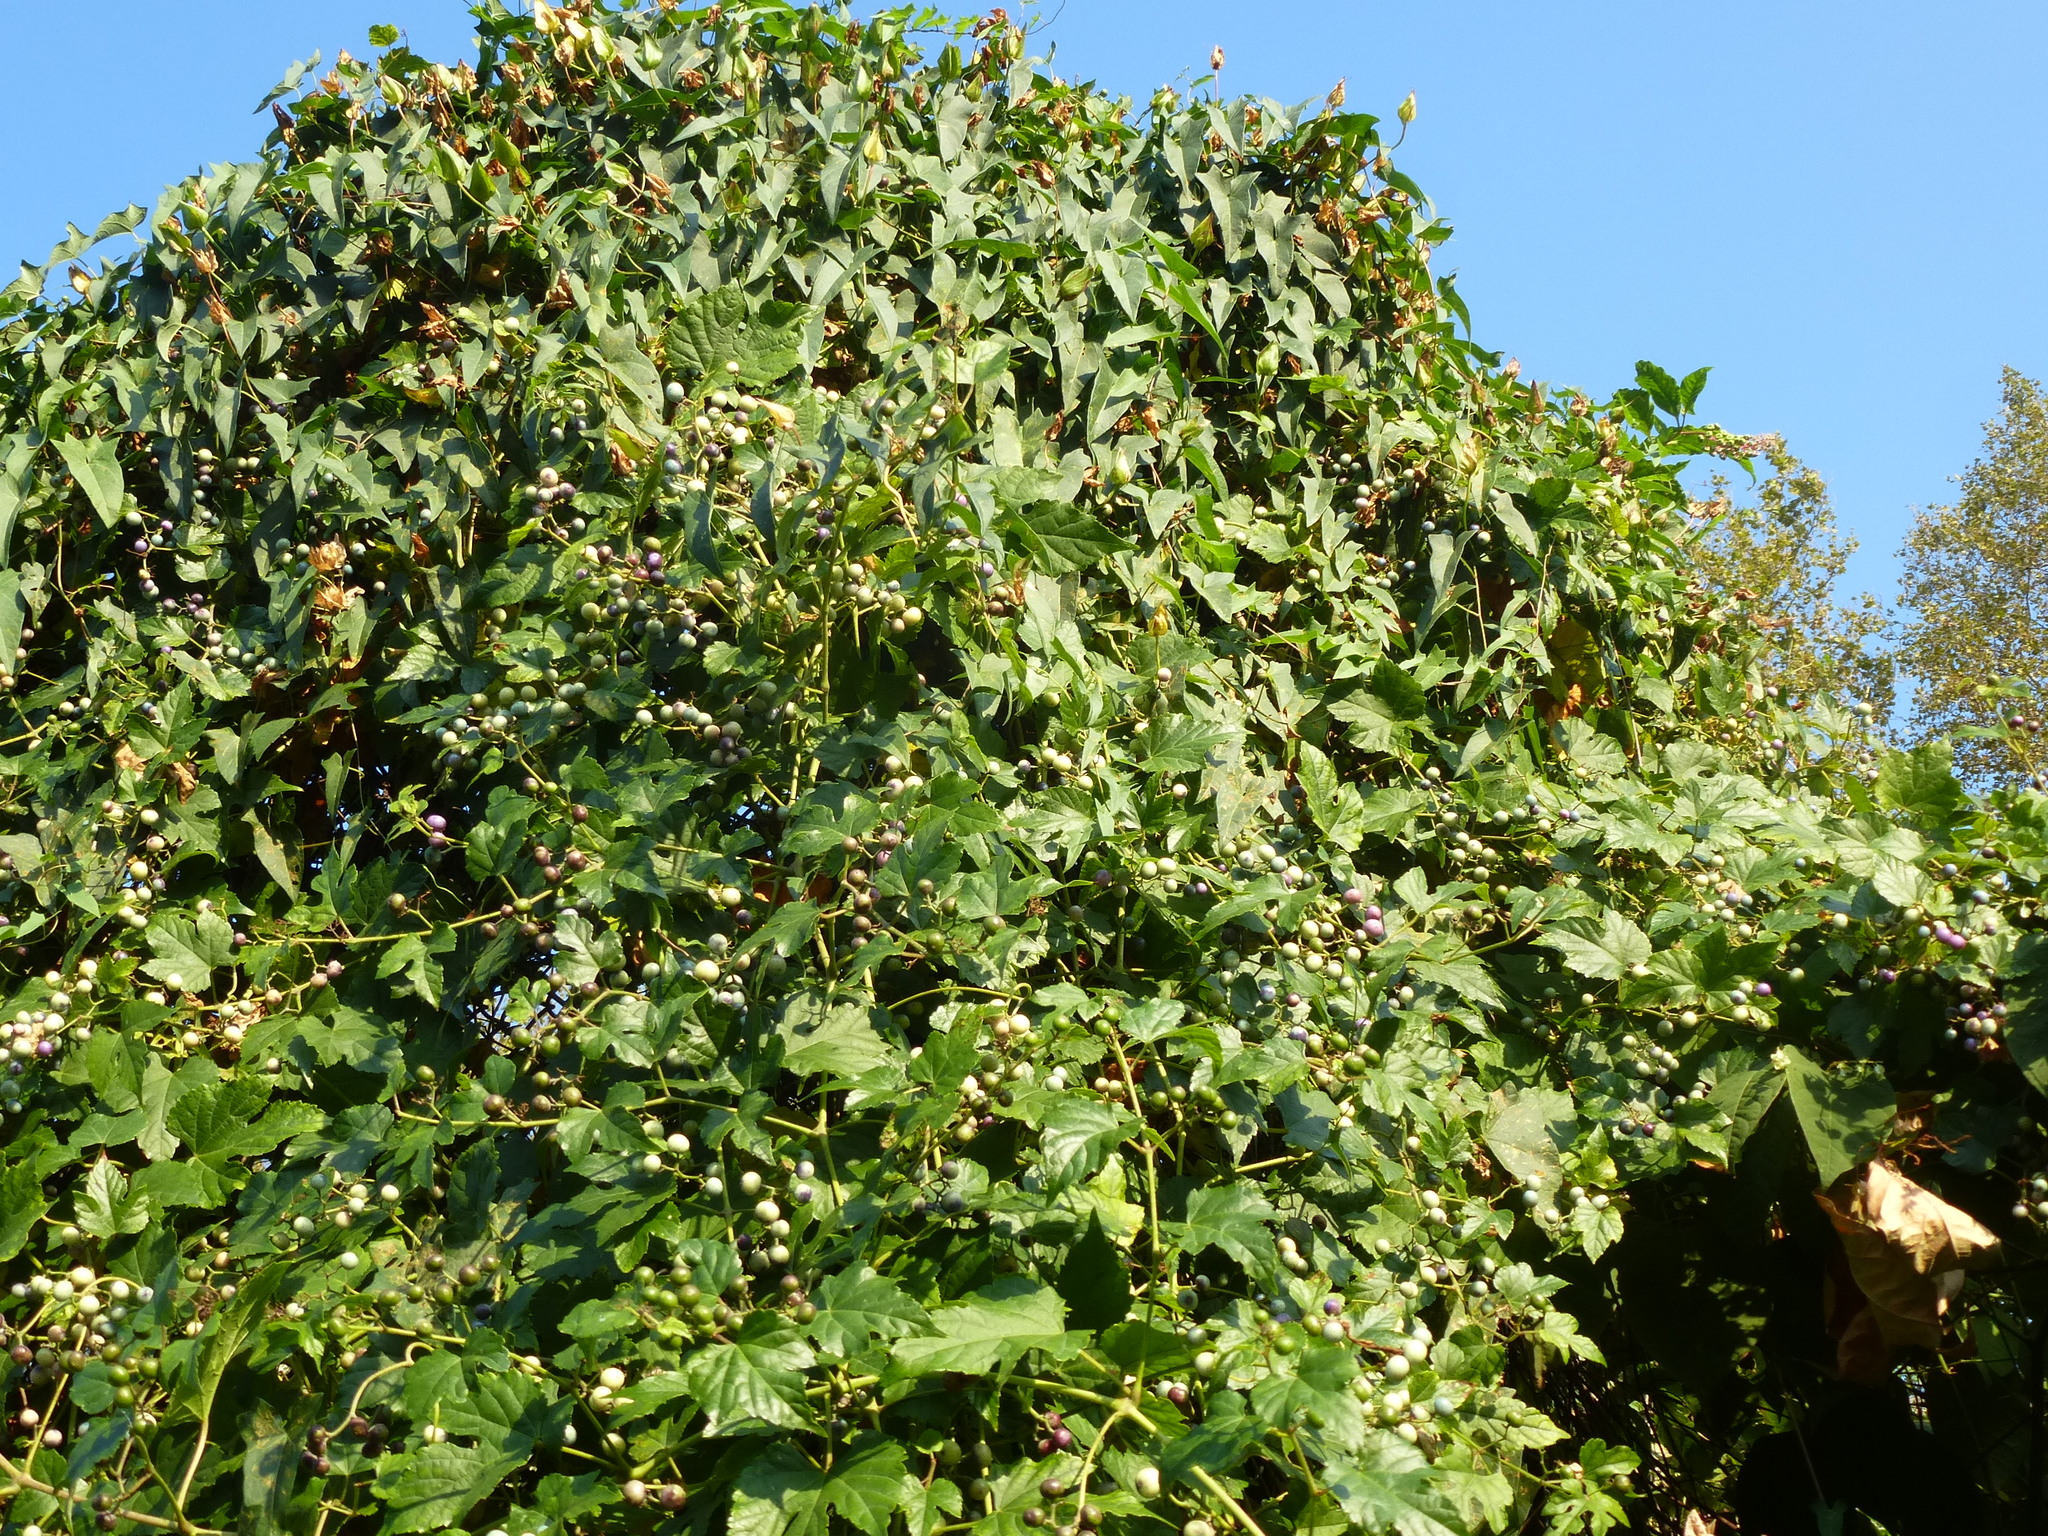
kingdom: Plantae
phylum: Tracheophyta
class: Magnoliopsida
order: Vitales
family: Vitaceae
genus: Ampelopsis
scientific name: Ampelopsis glandulosa
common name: Amur peppervine
